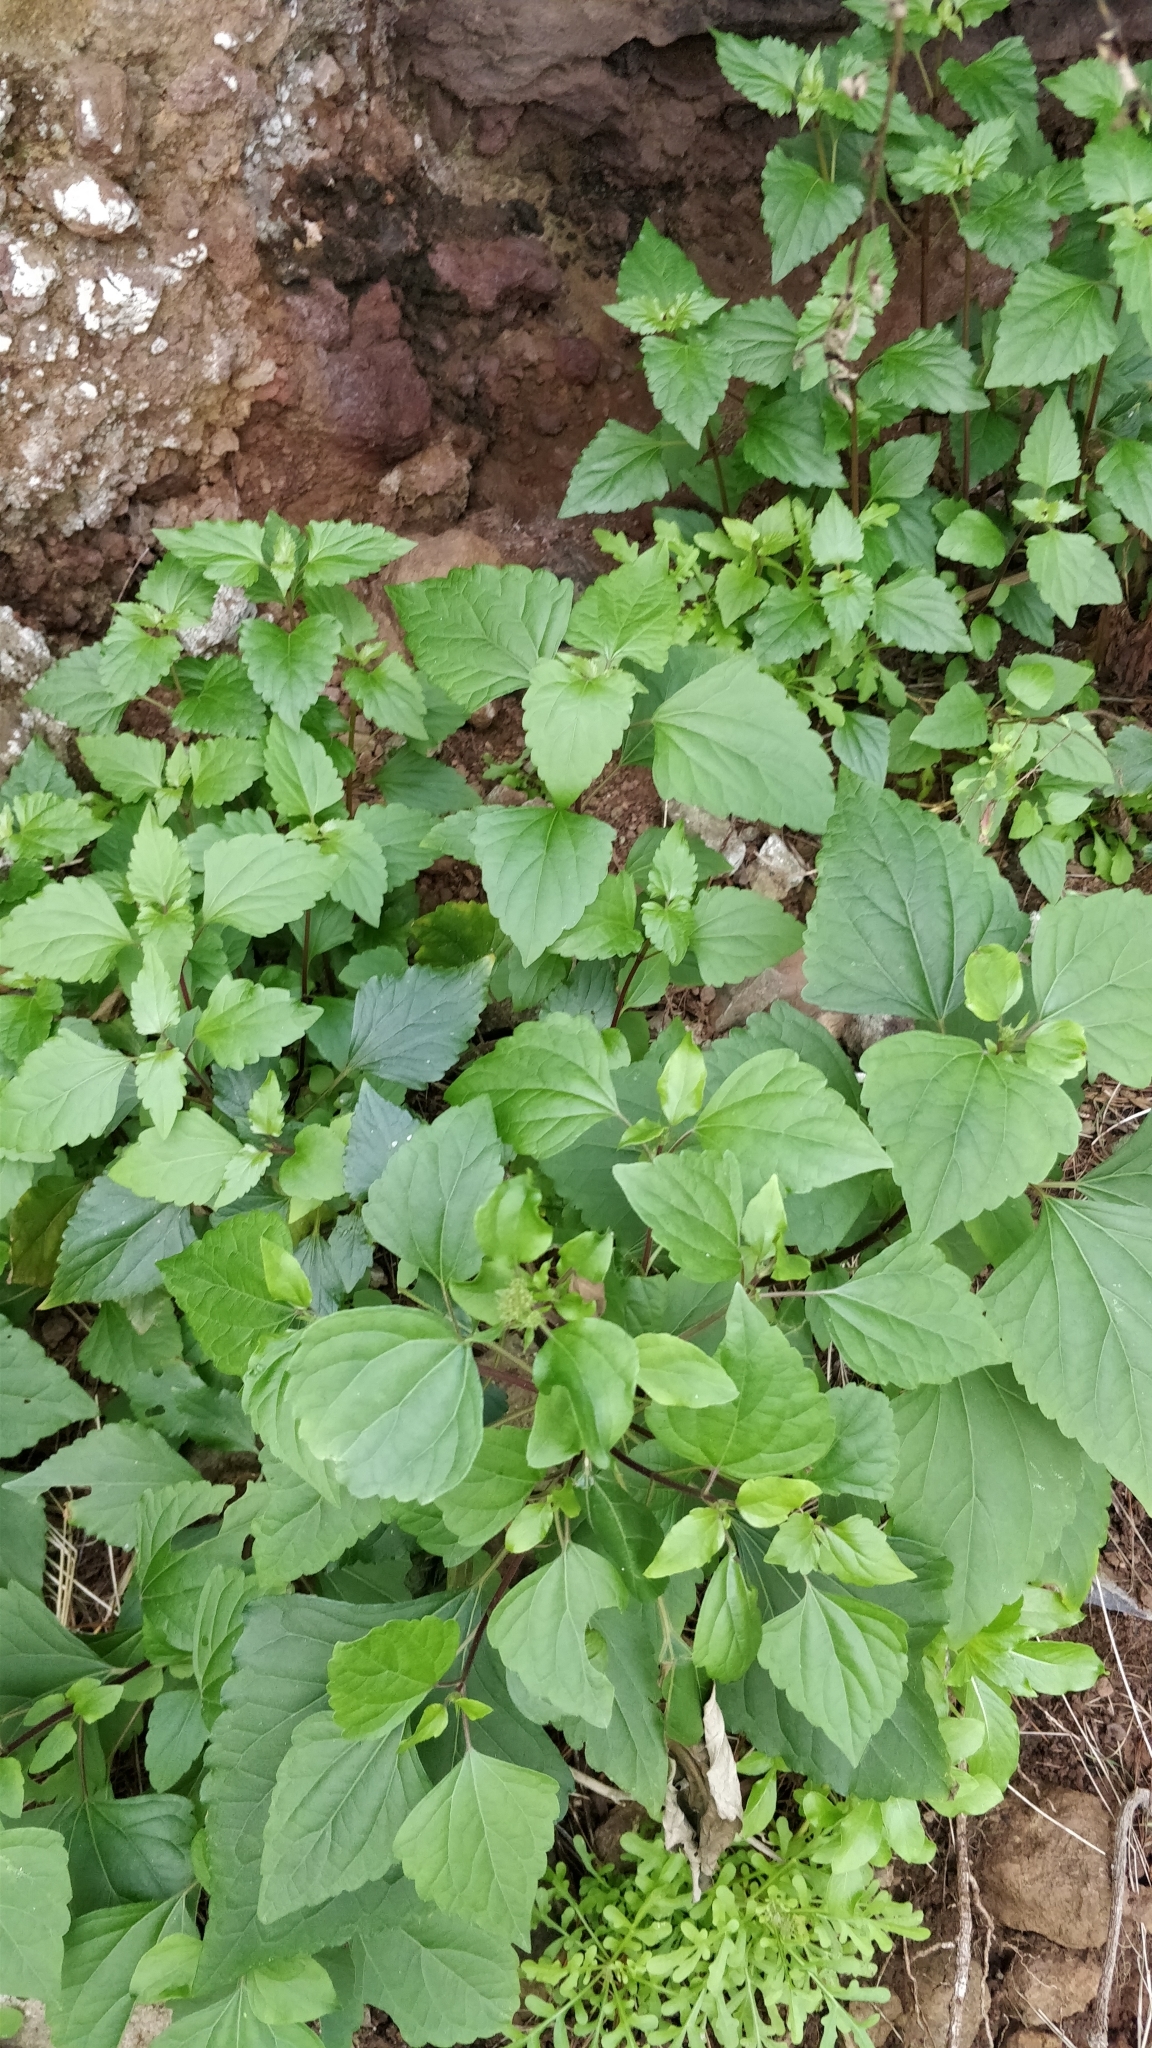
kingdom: Plantae
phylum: Tracheophyta
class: Magnoliopsida
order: Asterales
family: Asteraceae
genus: Ageratina
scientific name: Ageratina adenophora
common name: Sticky snakeroot
